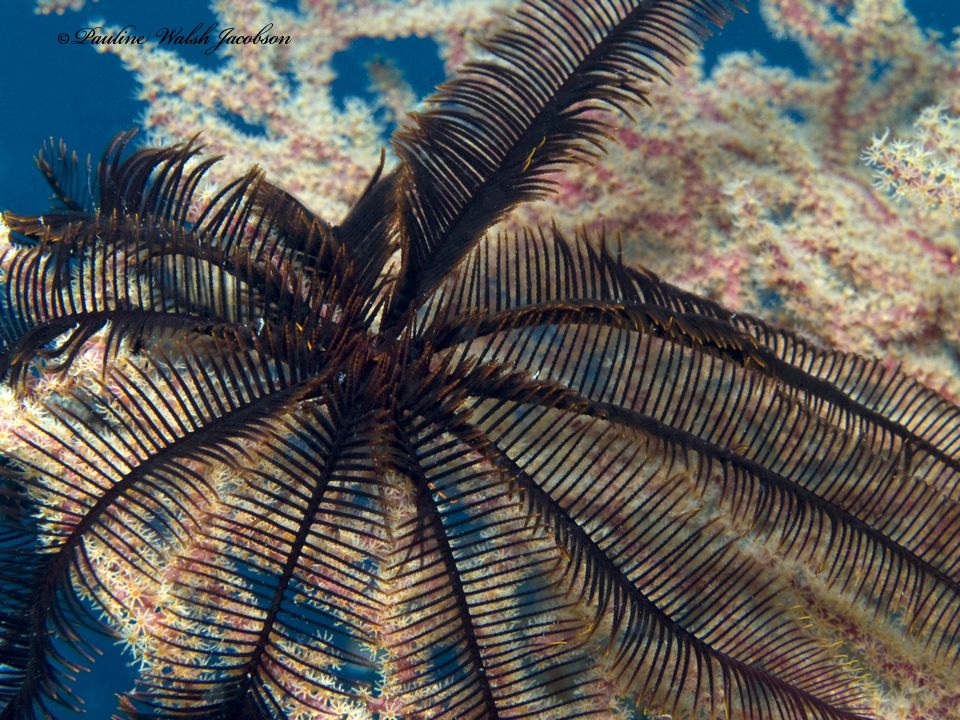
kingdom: Animalia
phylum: Echinodermata
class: Crinoidea
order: Comatulida
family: Colobometridae
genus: Colobometra
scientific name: Colobometra perspinosa
